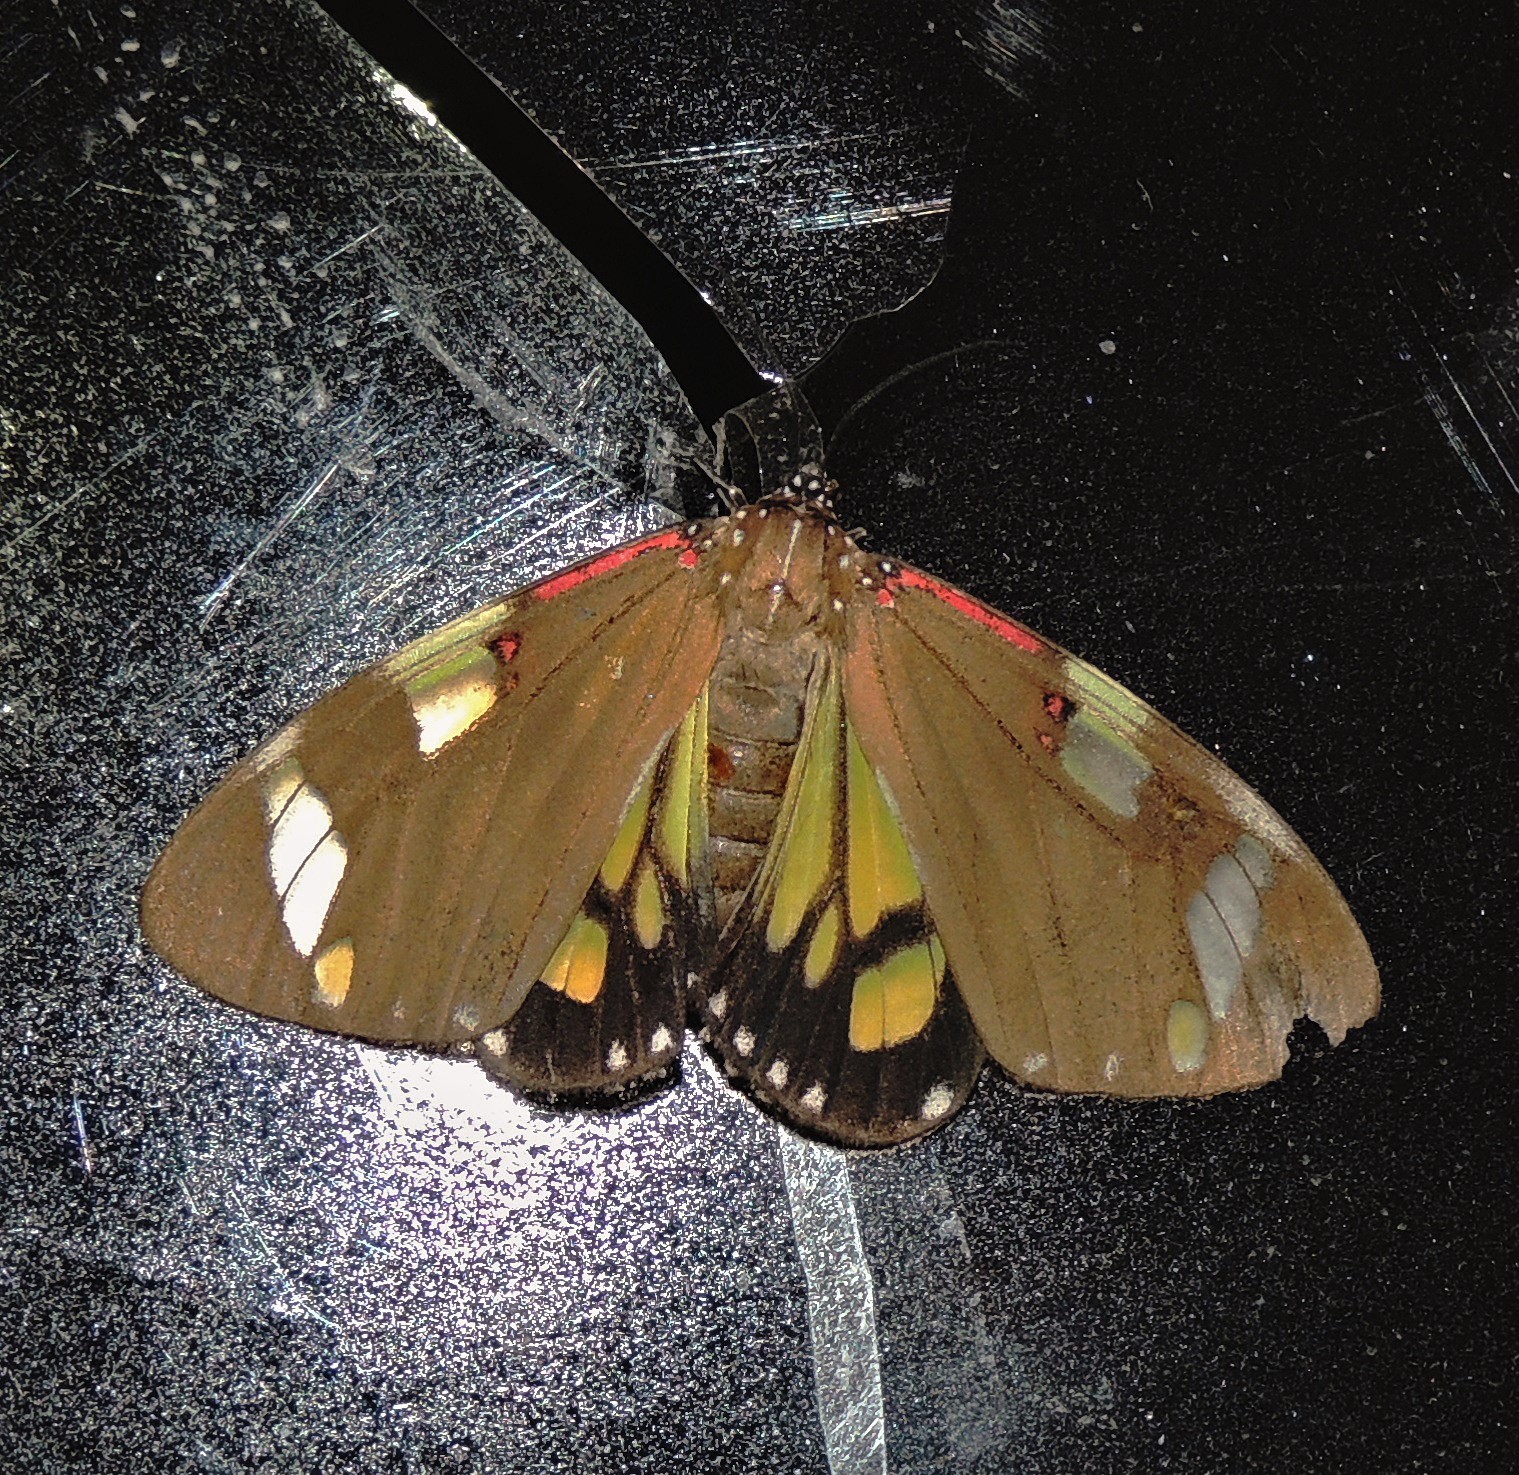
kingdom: Animalia
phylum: Arthropoda
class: Insecta
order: Lepidoptera
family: Erebidae
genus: Phaloe
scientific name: Phaloe cruenta
